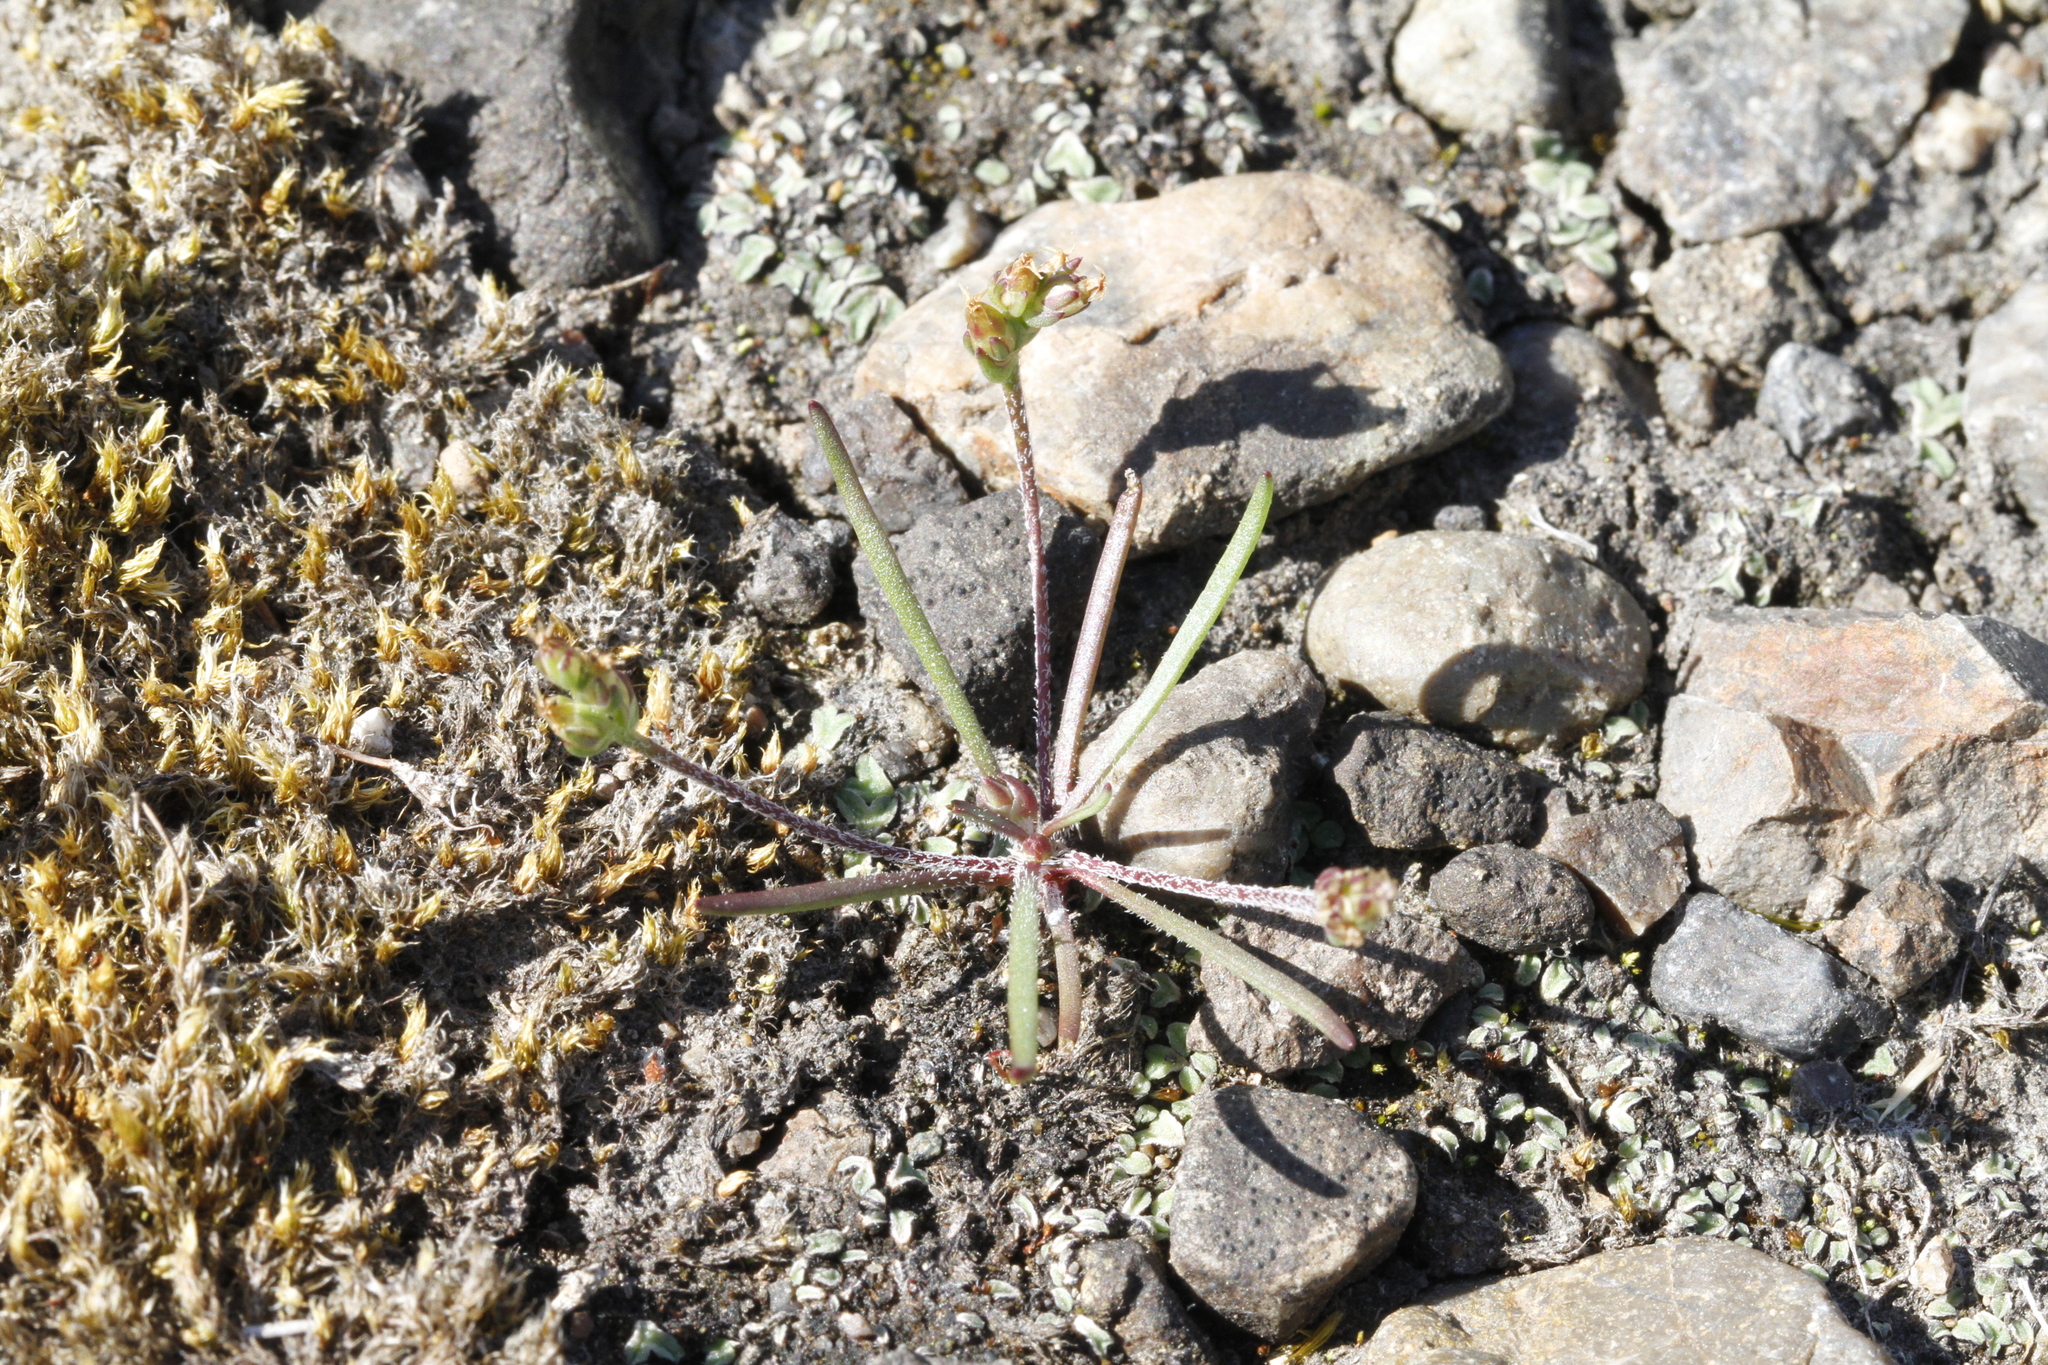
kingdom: Plantae
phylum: Tracheophyta
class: Magnoliopsida
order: Lamiales
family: Plantaginaceae
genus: Plantago
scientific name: Plantago elongata
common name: Linear-leaved plantain
